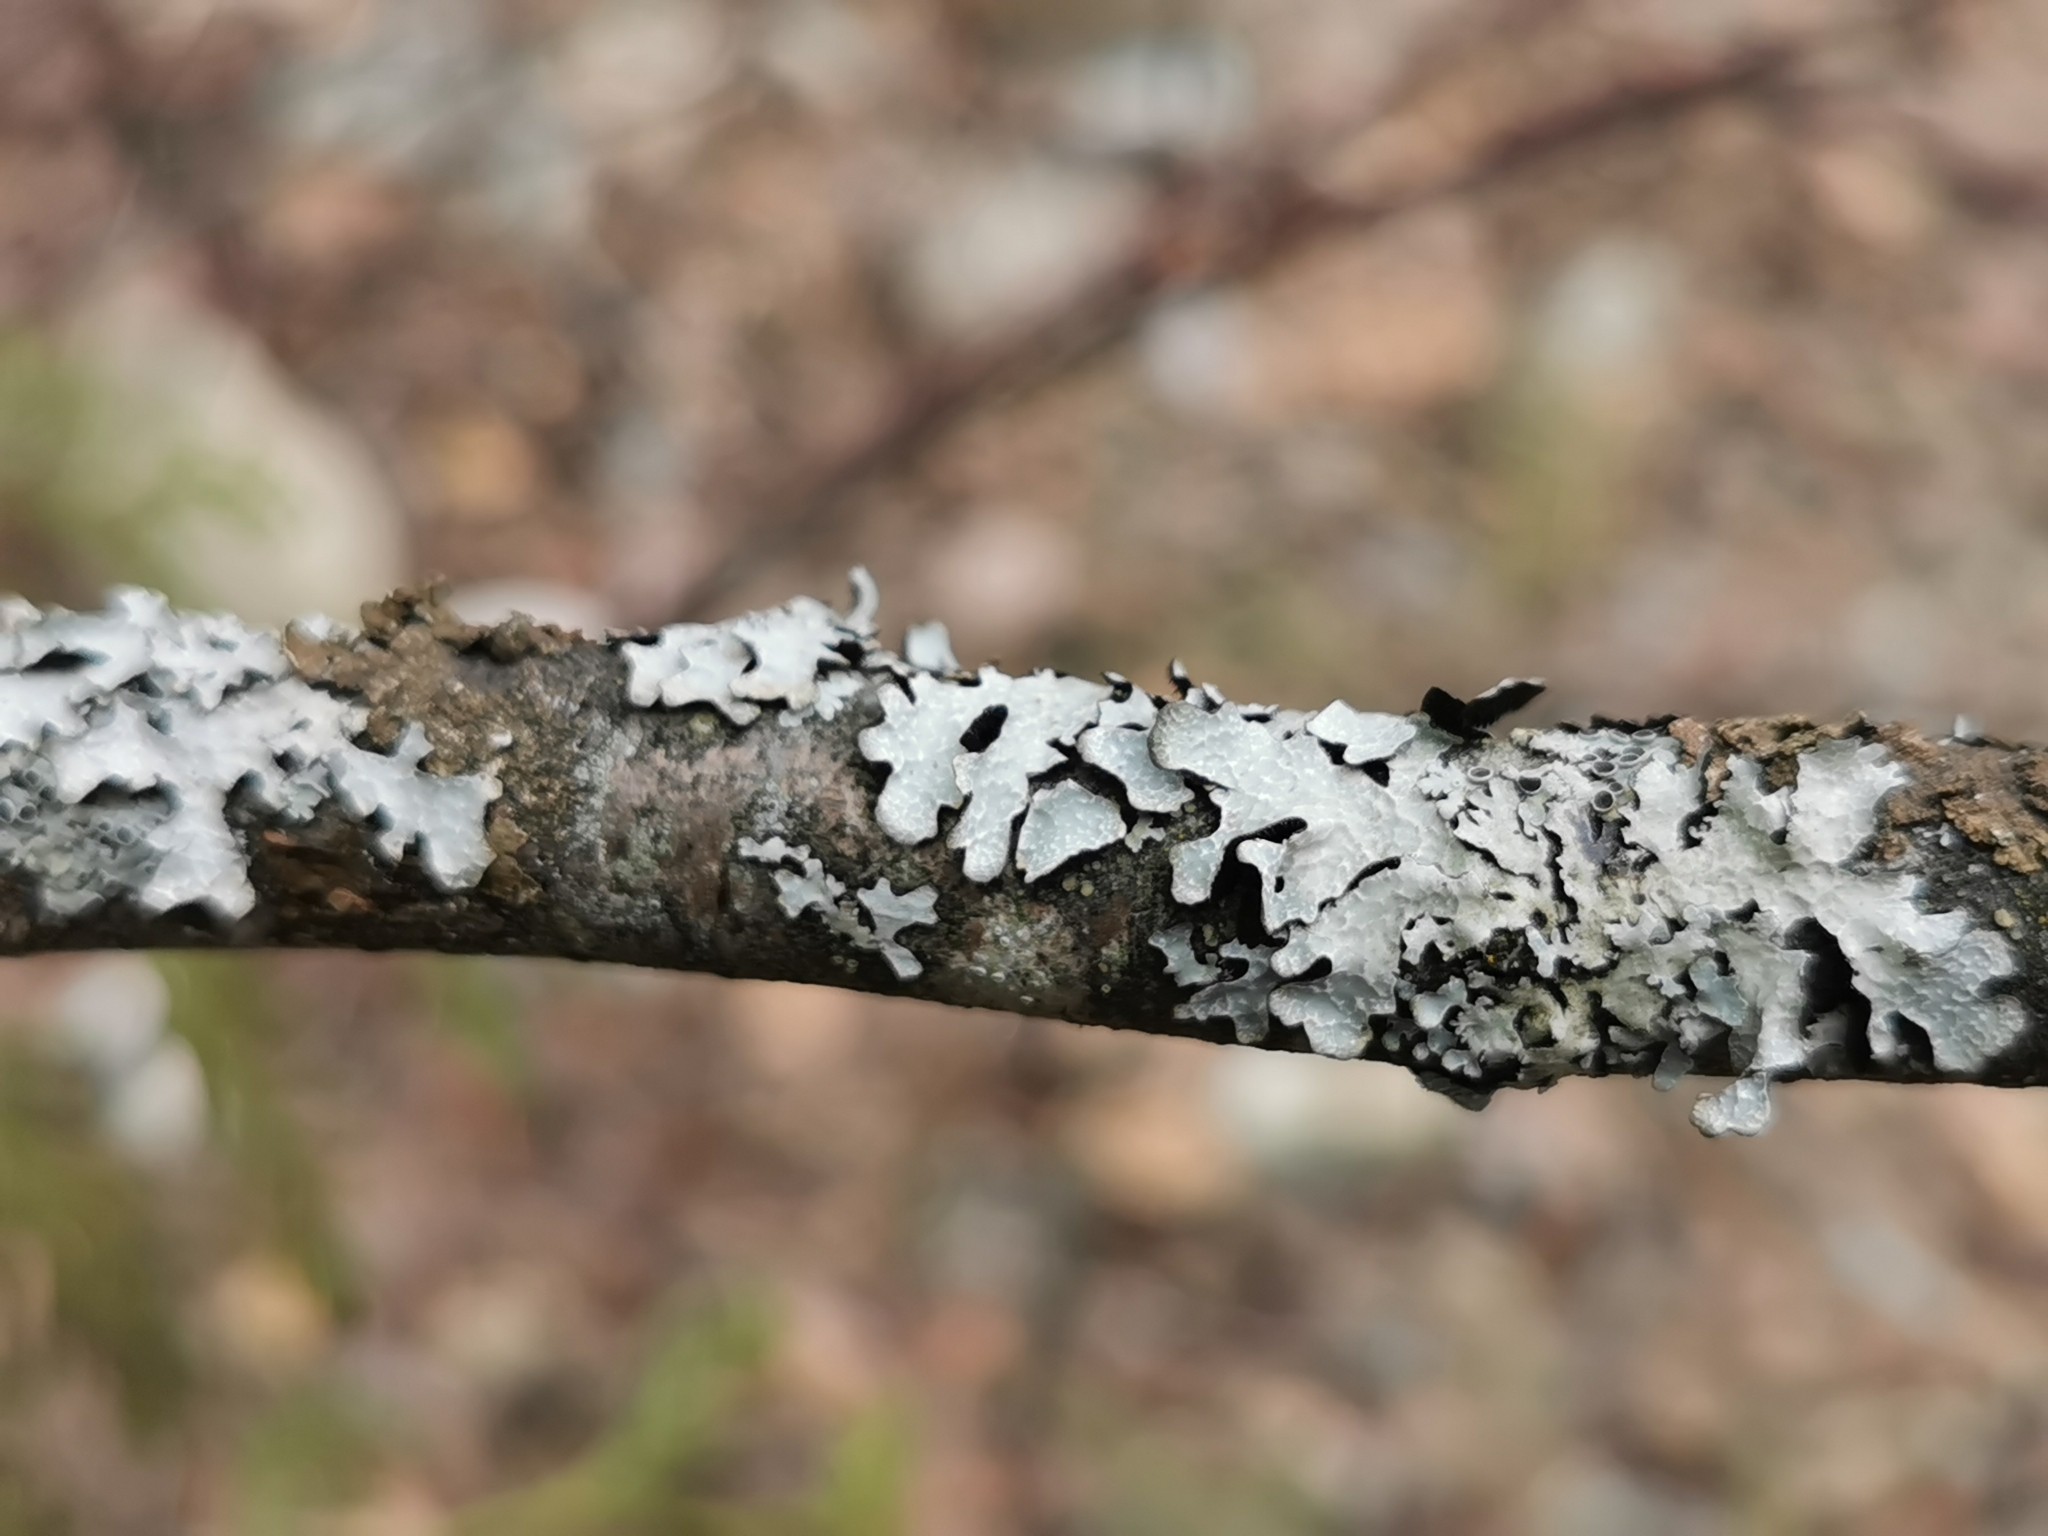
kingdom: Fungi
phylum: Ascomycota
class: Lecanoromycetes
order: Lecanorales
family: Parmeliaceae
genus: Parmelia
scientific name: Parmelia sulcata
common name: Netted shield lichen
